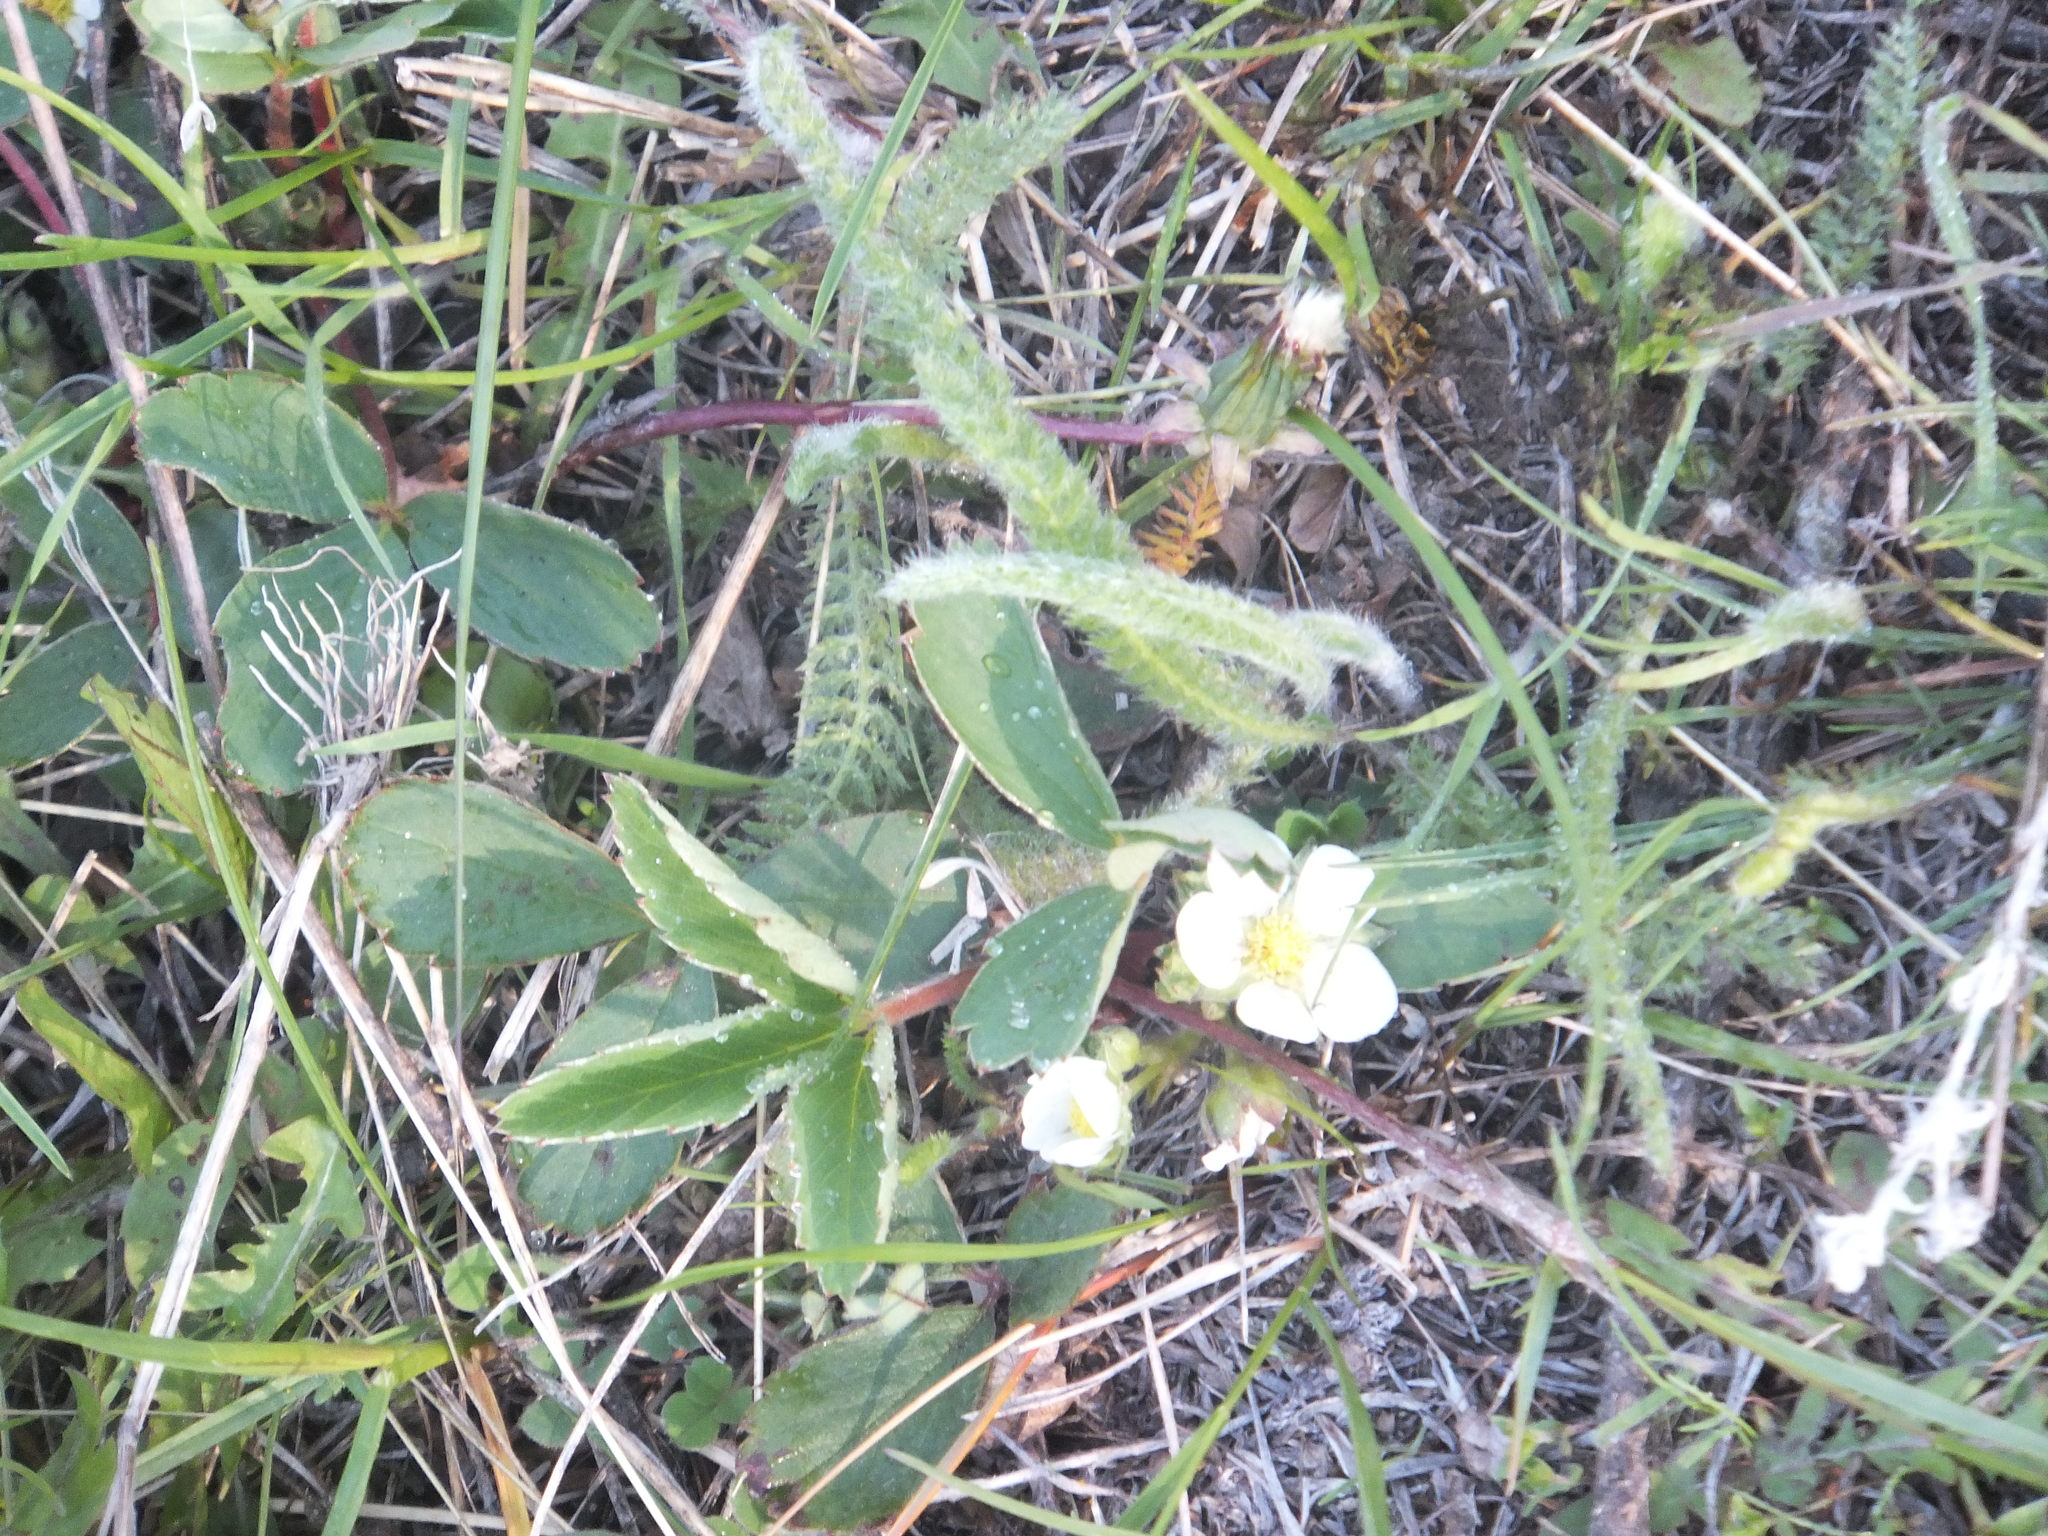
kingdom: Plantae
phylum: Tracheophyta
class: Magnoliopsida
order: Rosales
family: Rosaceae
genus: Fragaria
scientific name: Fragaria virginiana
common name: Thickleaved wild strawberry
